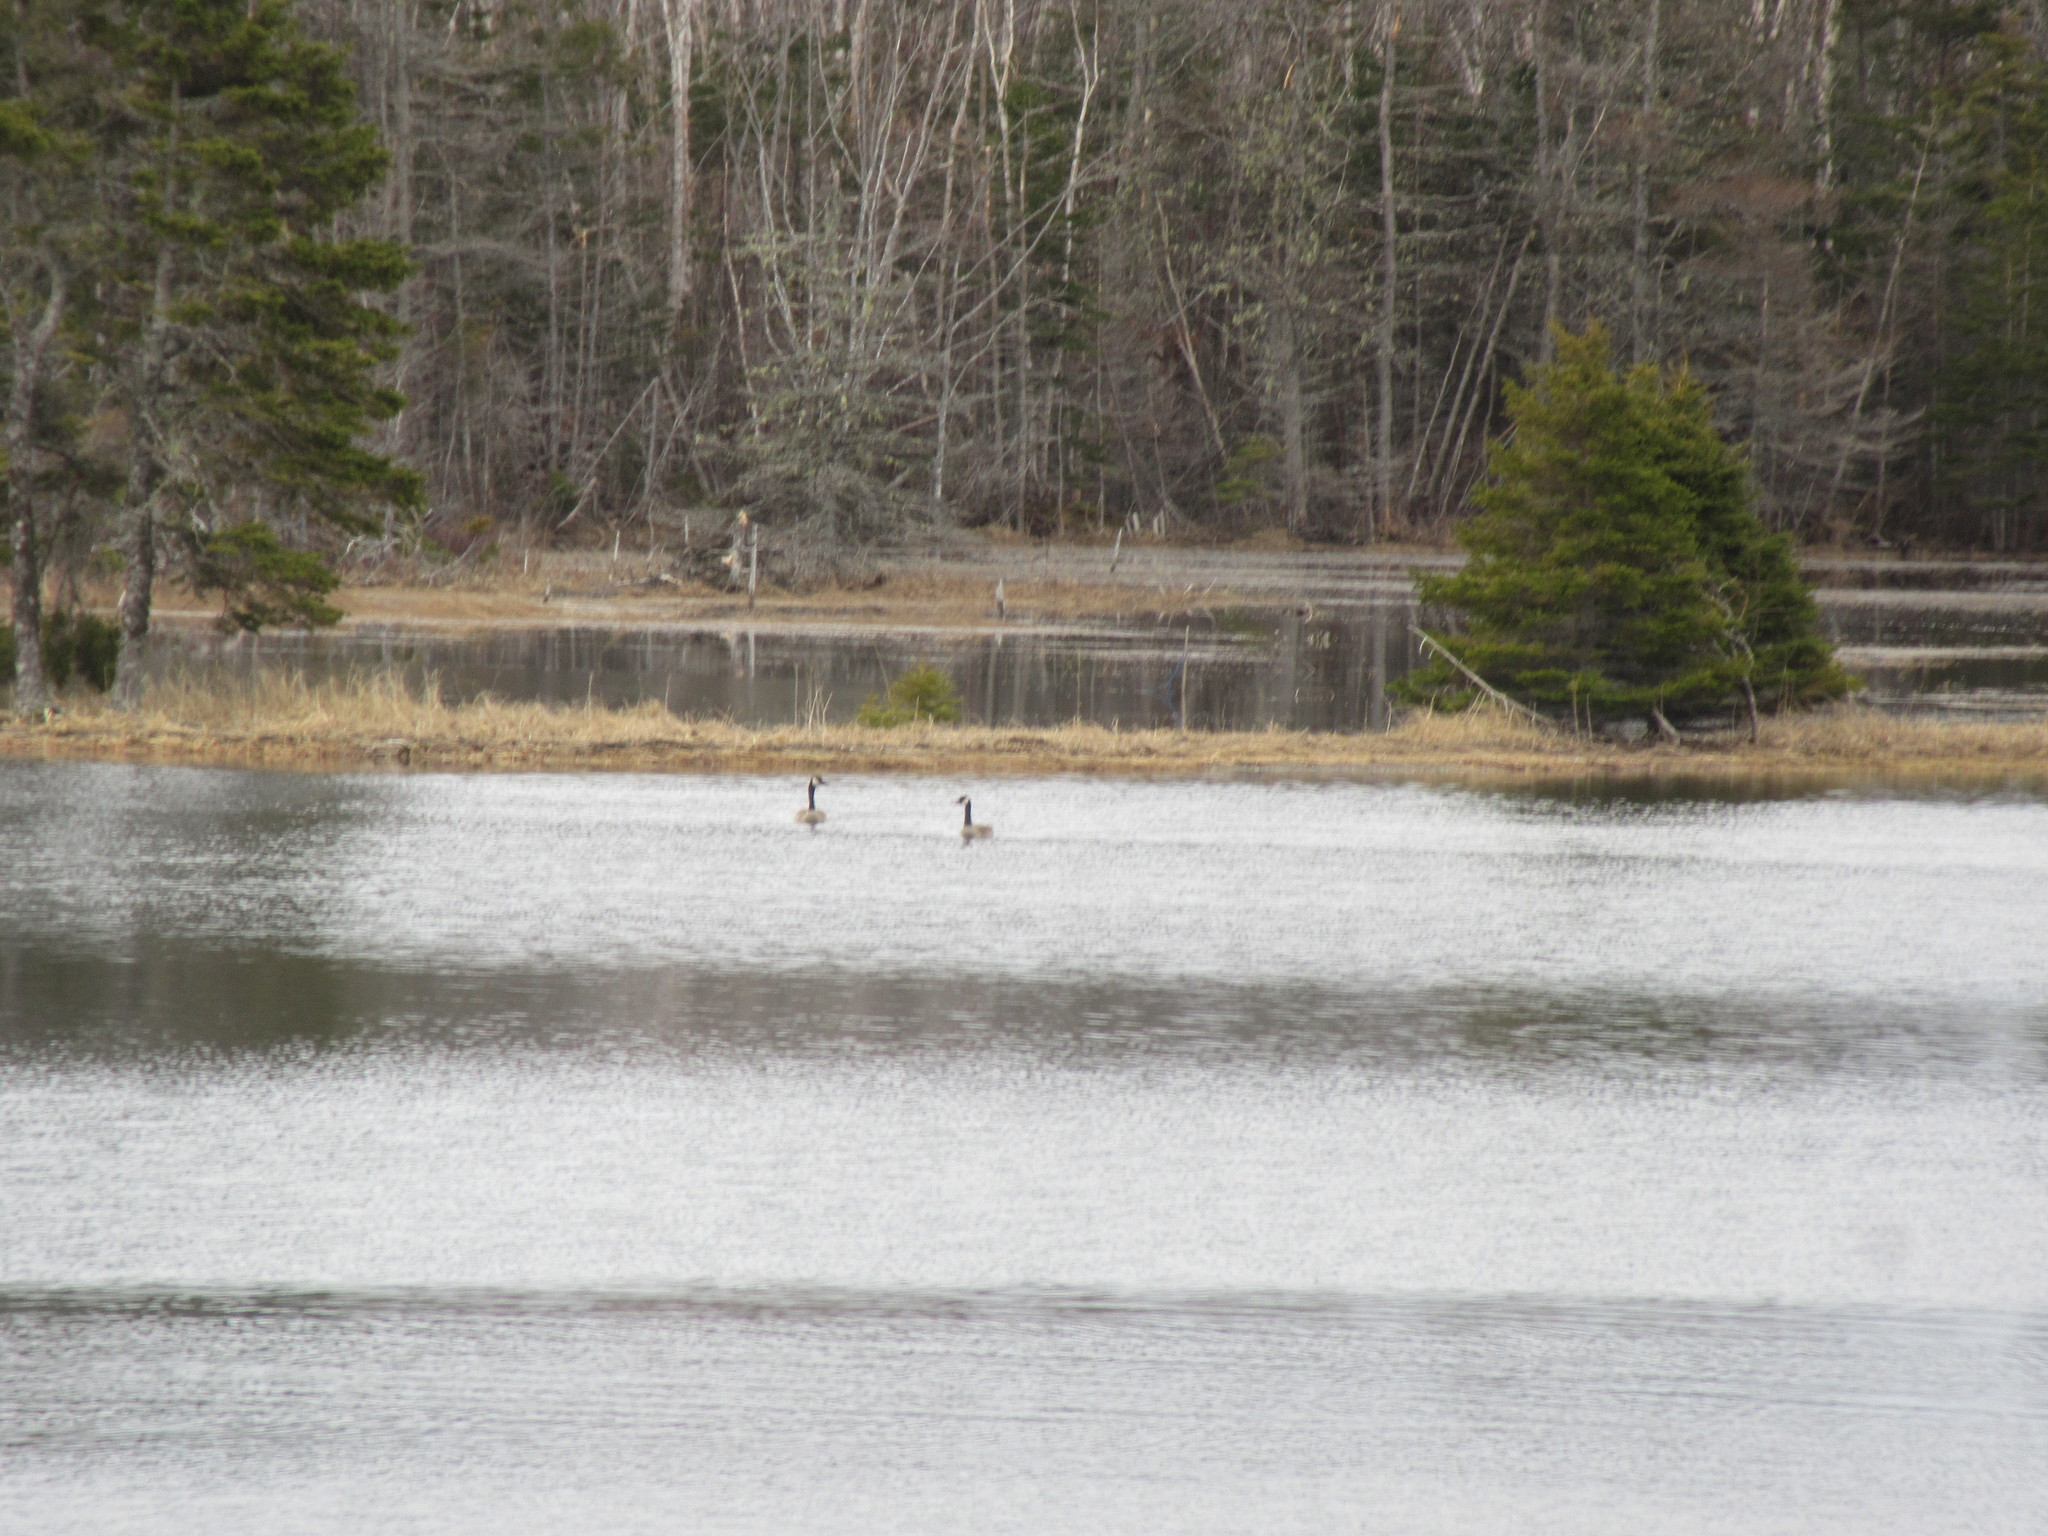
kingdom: Animalia
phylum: Chordata
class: Aves
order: Anseriformes
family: Anatidae
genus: Branta
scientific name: Branta canadensis
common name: Canada goose
